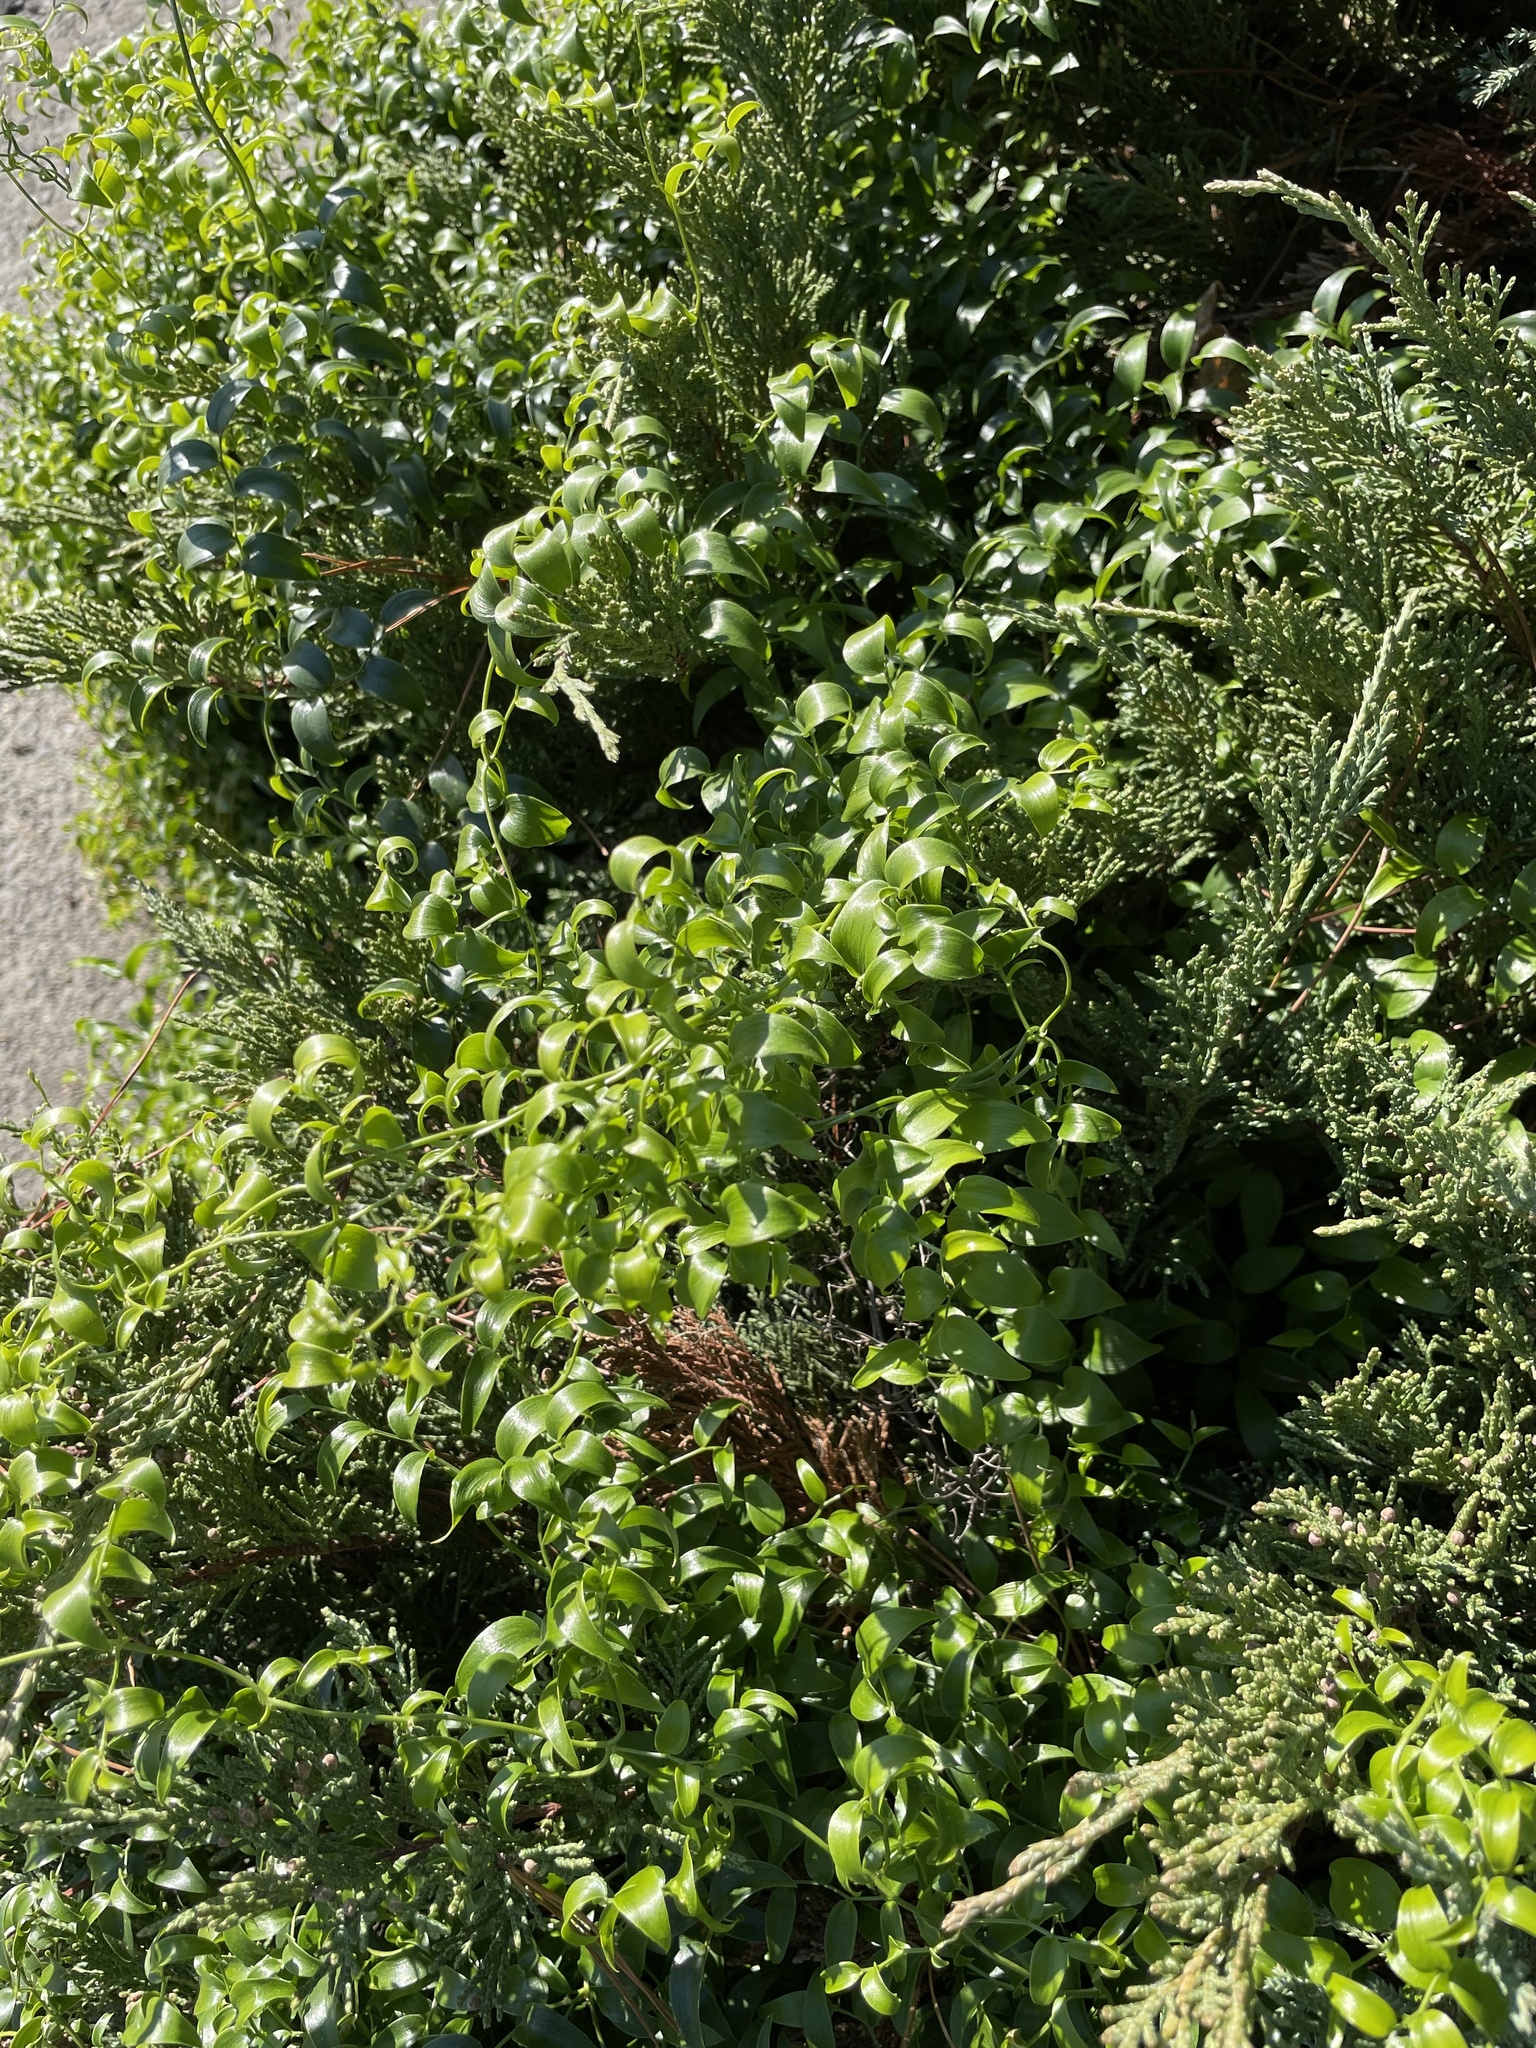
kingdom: Plantae
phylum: Tracheophyta
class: Liliopsida
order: Asparagales
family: Asparagaceae
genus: Asparagus
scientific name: Asparagus asparagoides
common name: African asparagus fern
